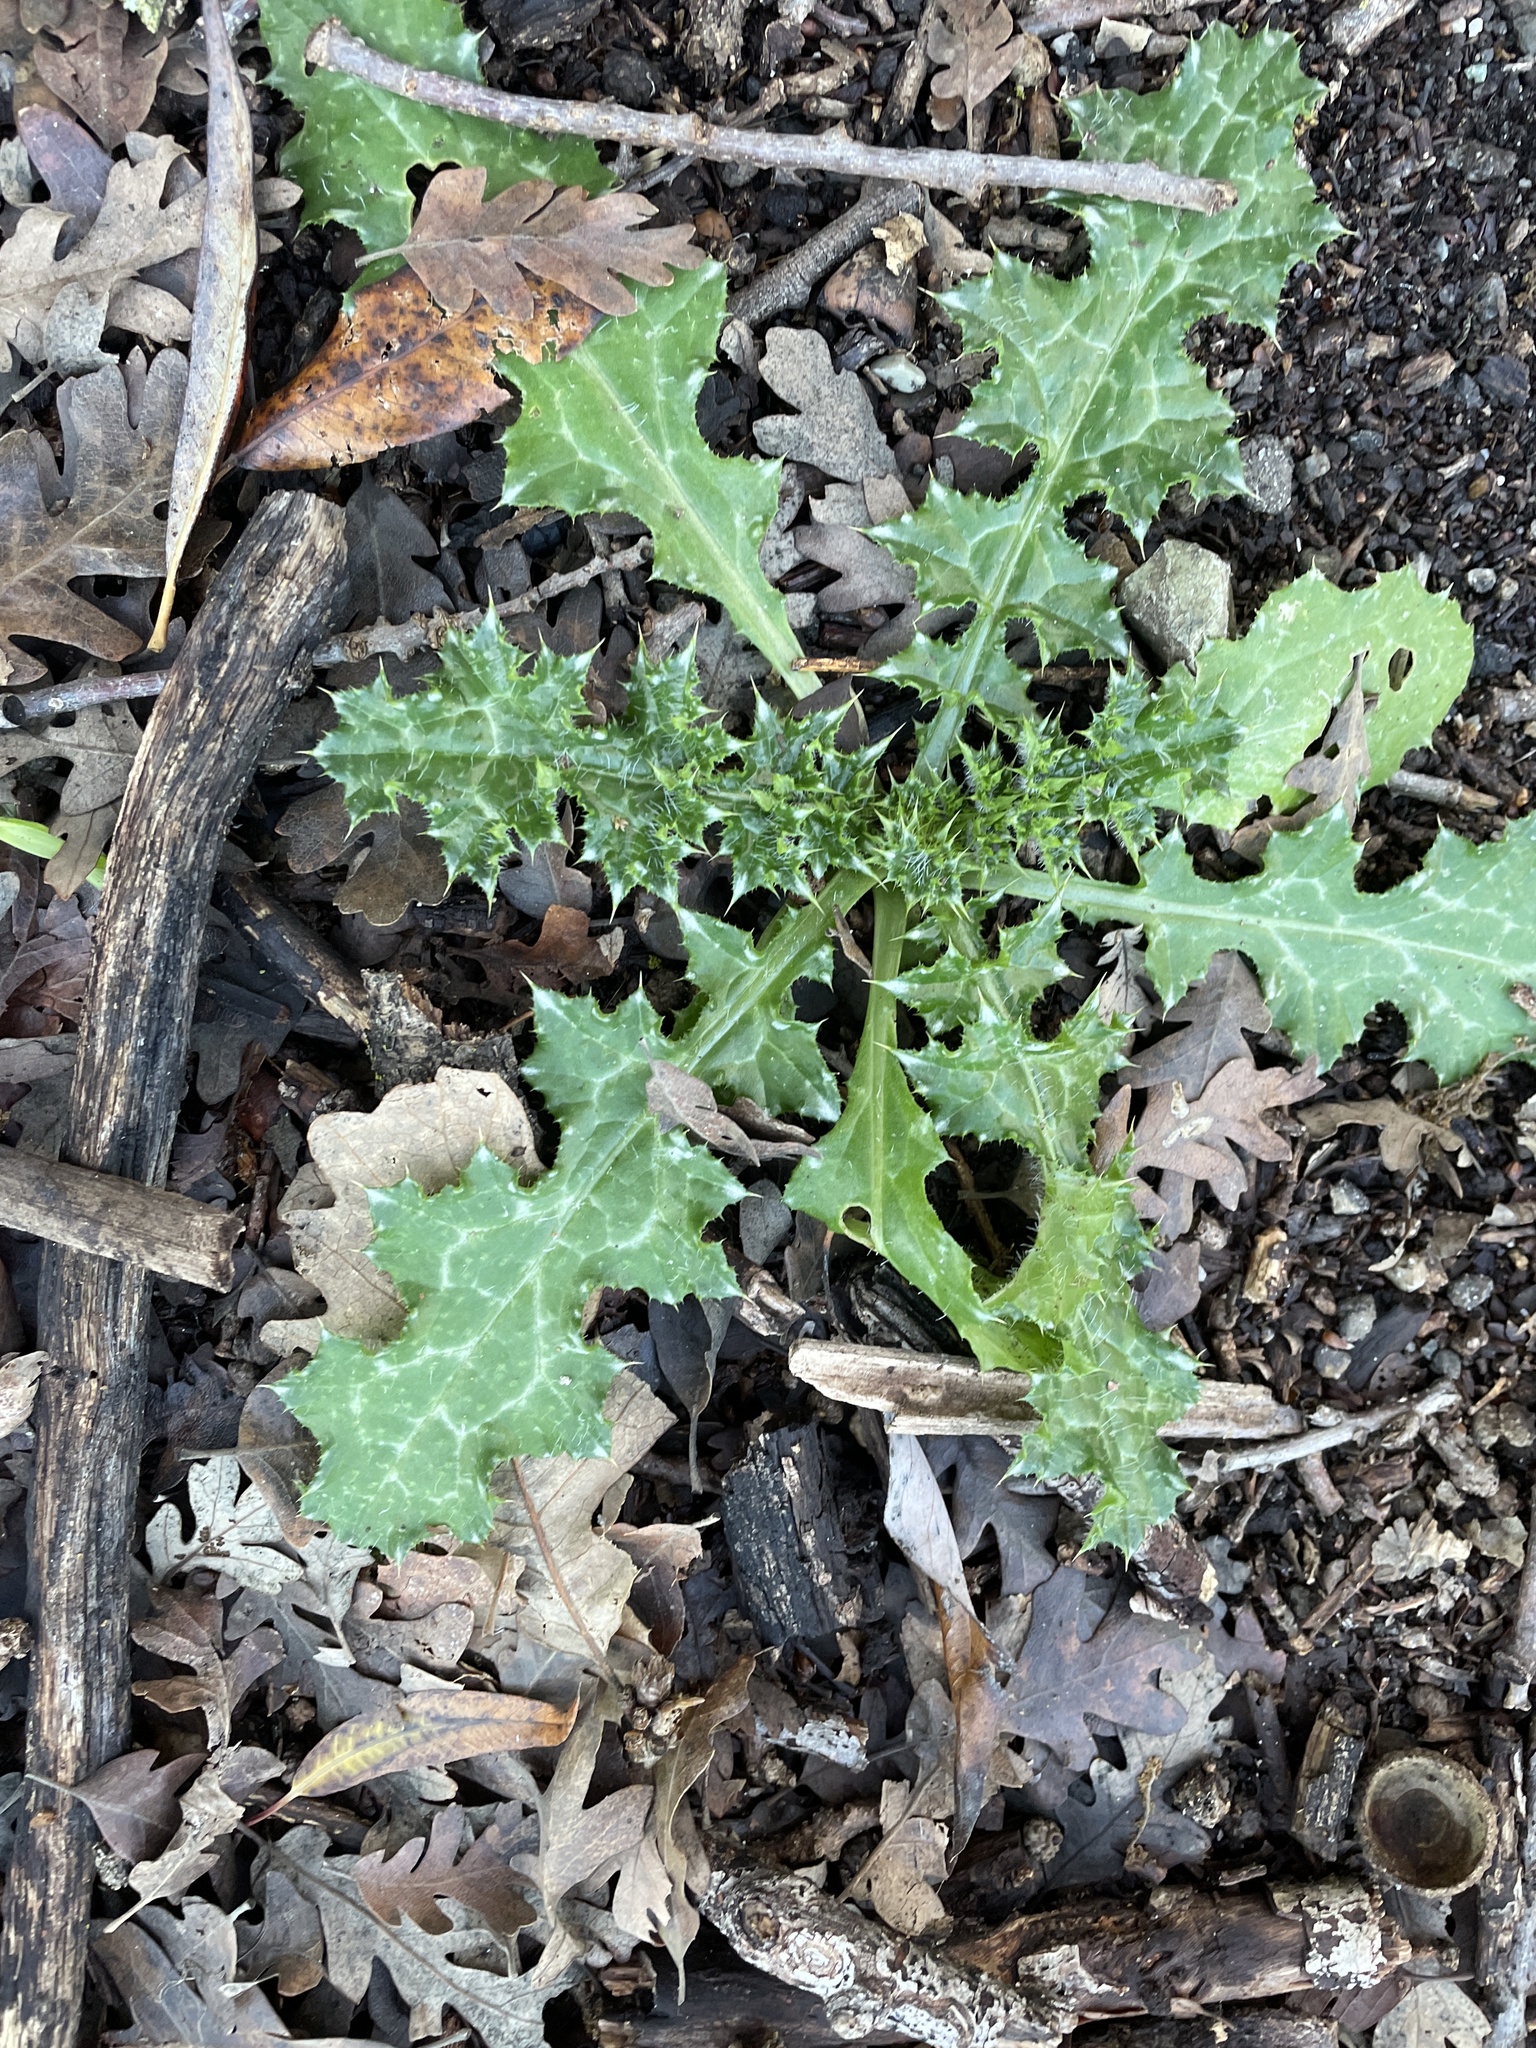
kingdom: Plantae
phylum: Tracheophyta
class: Magnoliopsida
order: Asterales
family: Asteraceae
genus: Carduus
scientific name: Carduus pycnocephalus
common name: Plymouth thistle
